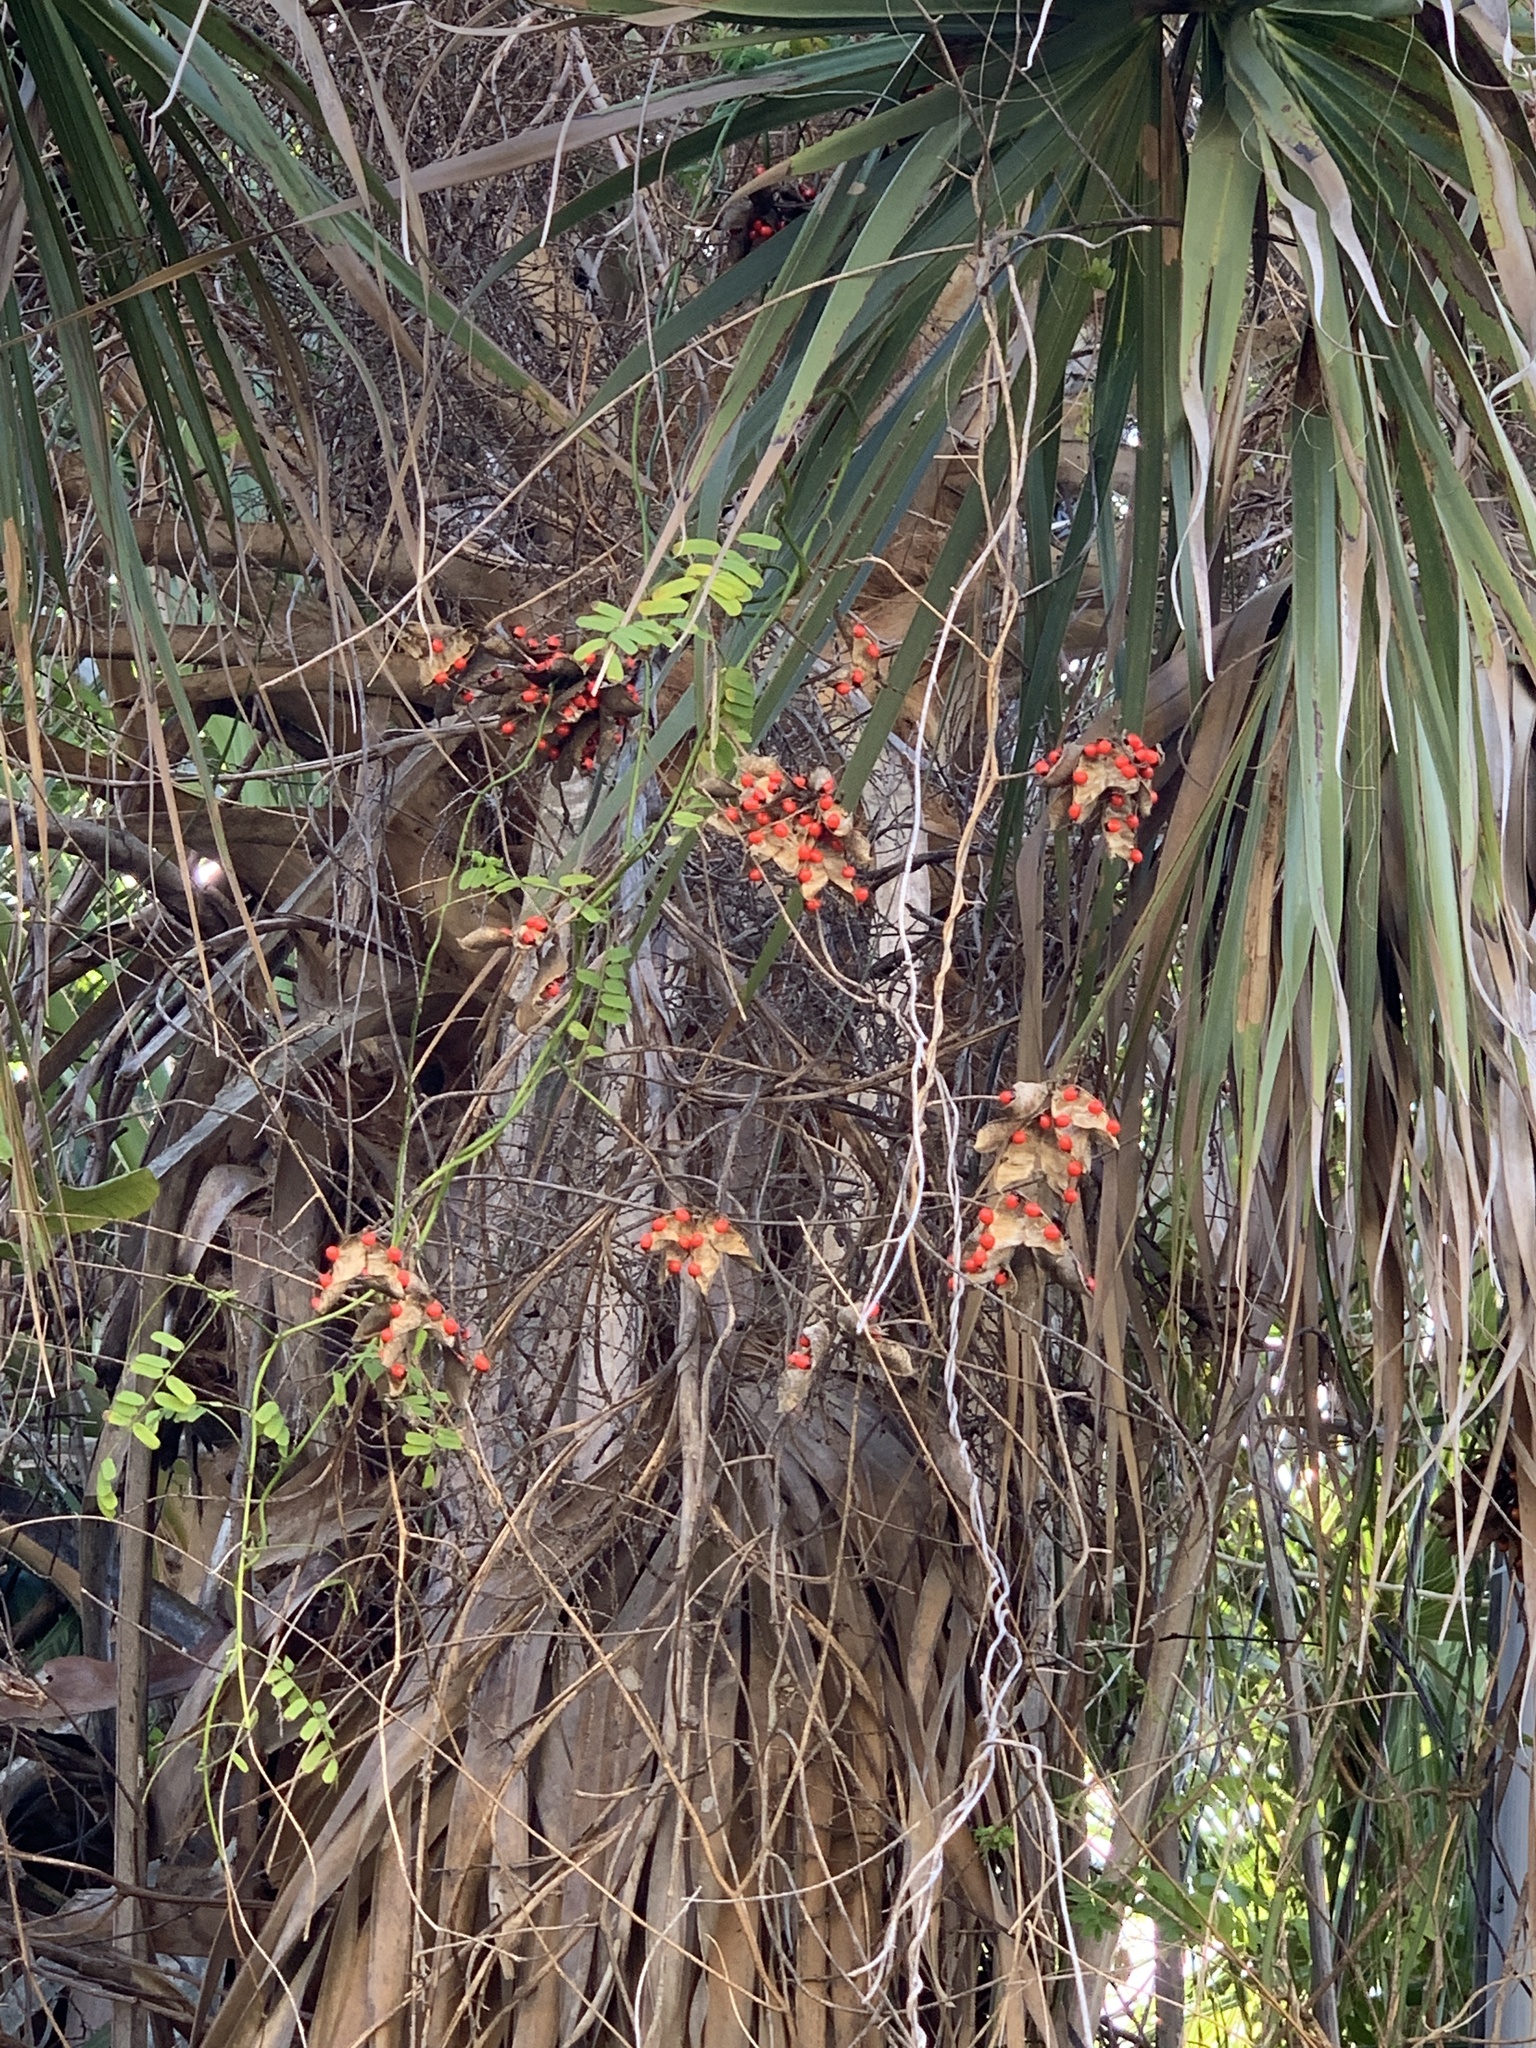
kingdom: Plantae
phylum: Tracheophyta
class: Magnoliopsida
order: Fabales
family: Fabaceae
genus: Abrus
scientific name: Abrus precatorius
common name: Rosarypea
